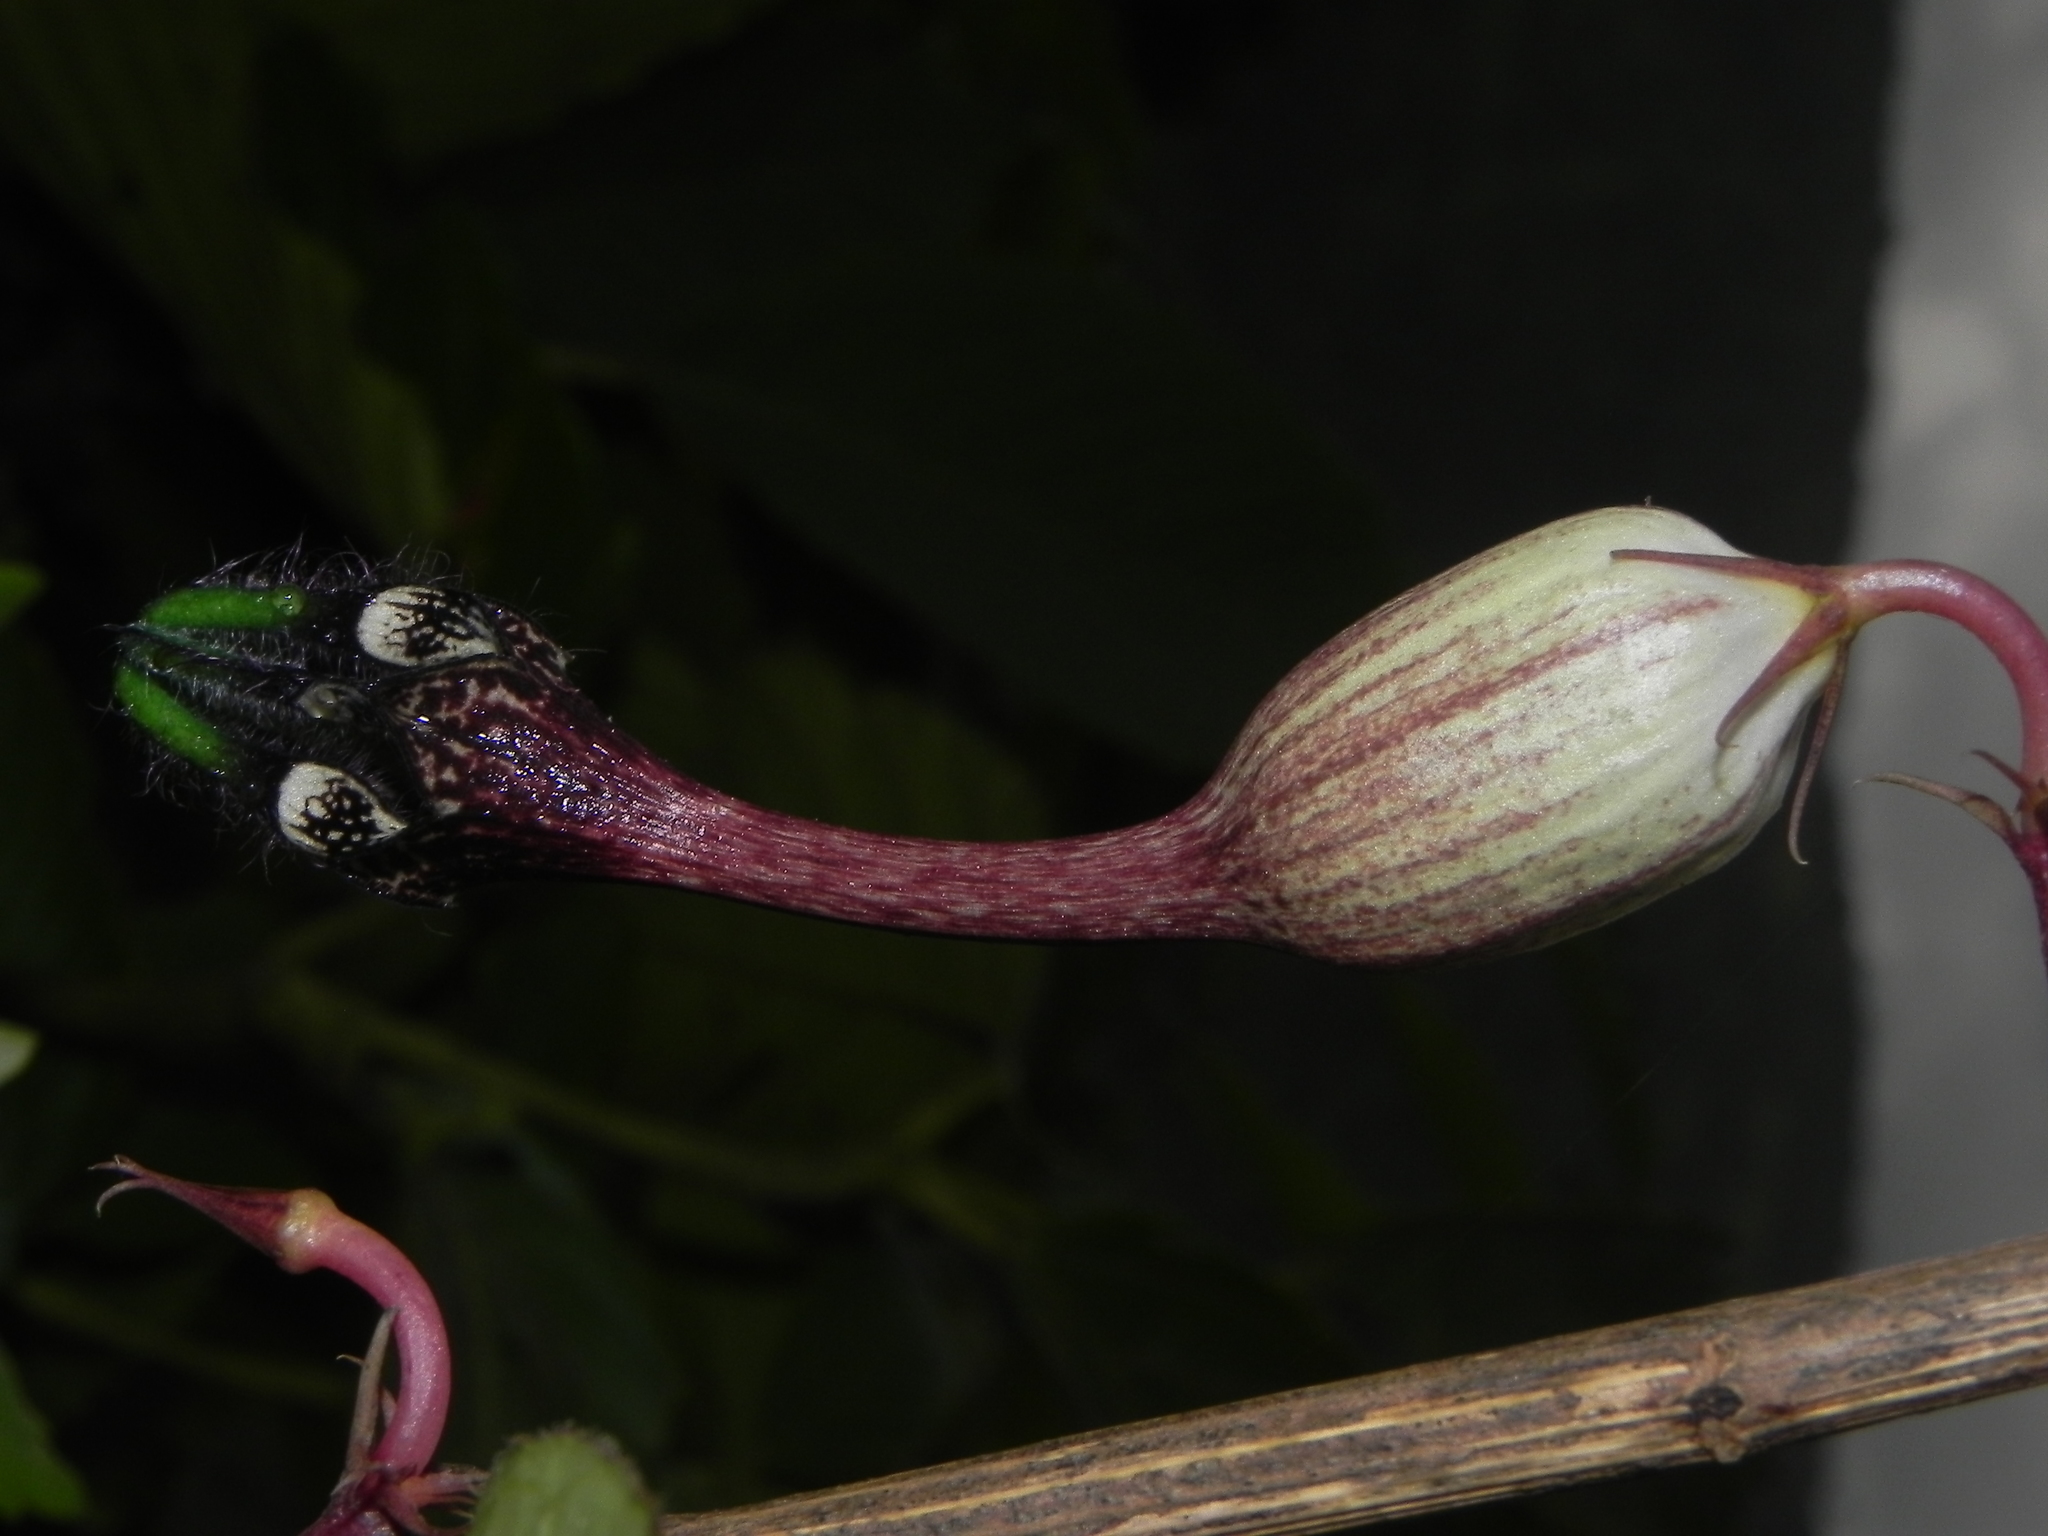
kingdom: Plantae
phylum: Tracheophyta
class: Magnoliopsida
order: Gentianales
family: Apocynaceae
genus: Ceropegia
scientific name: Ceropegia oculata
